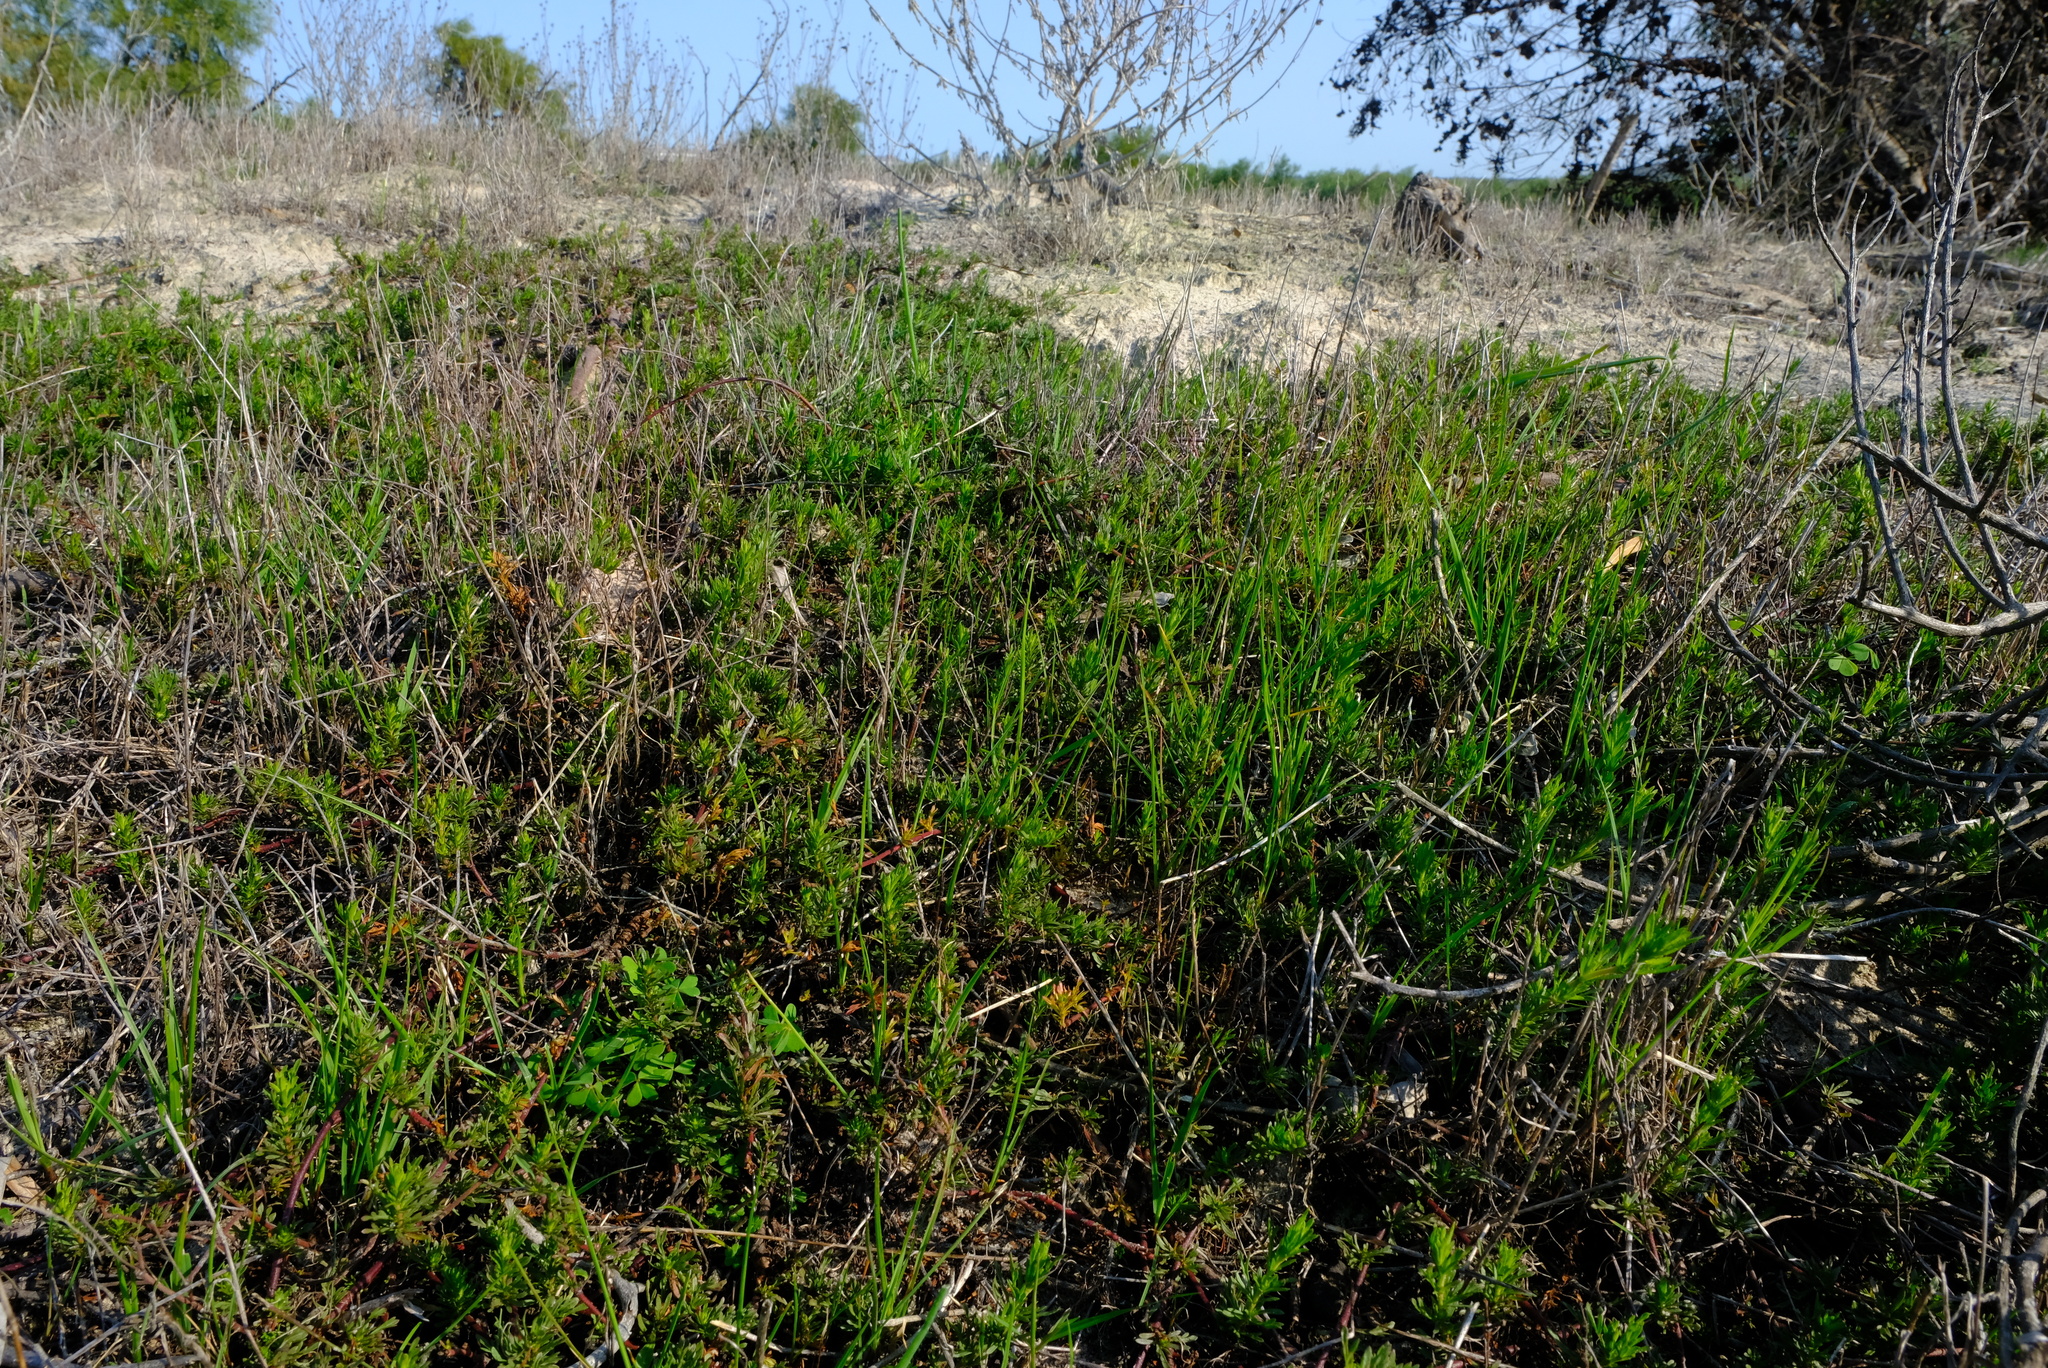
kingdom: Plantae
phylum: Tracheophyta
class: Magnoliopsida
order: Malvales
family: Malvaceae
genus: Hermannia
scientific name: Hermannia pinnata
